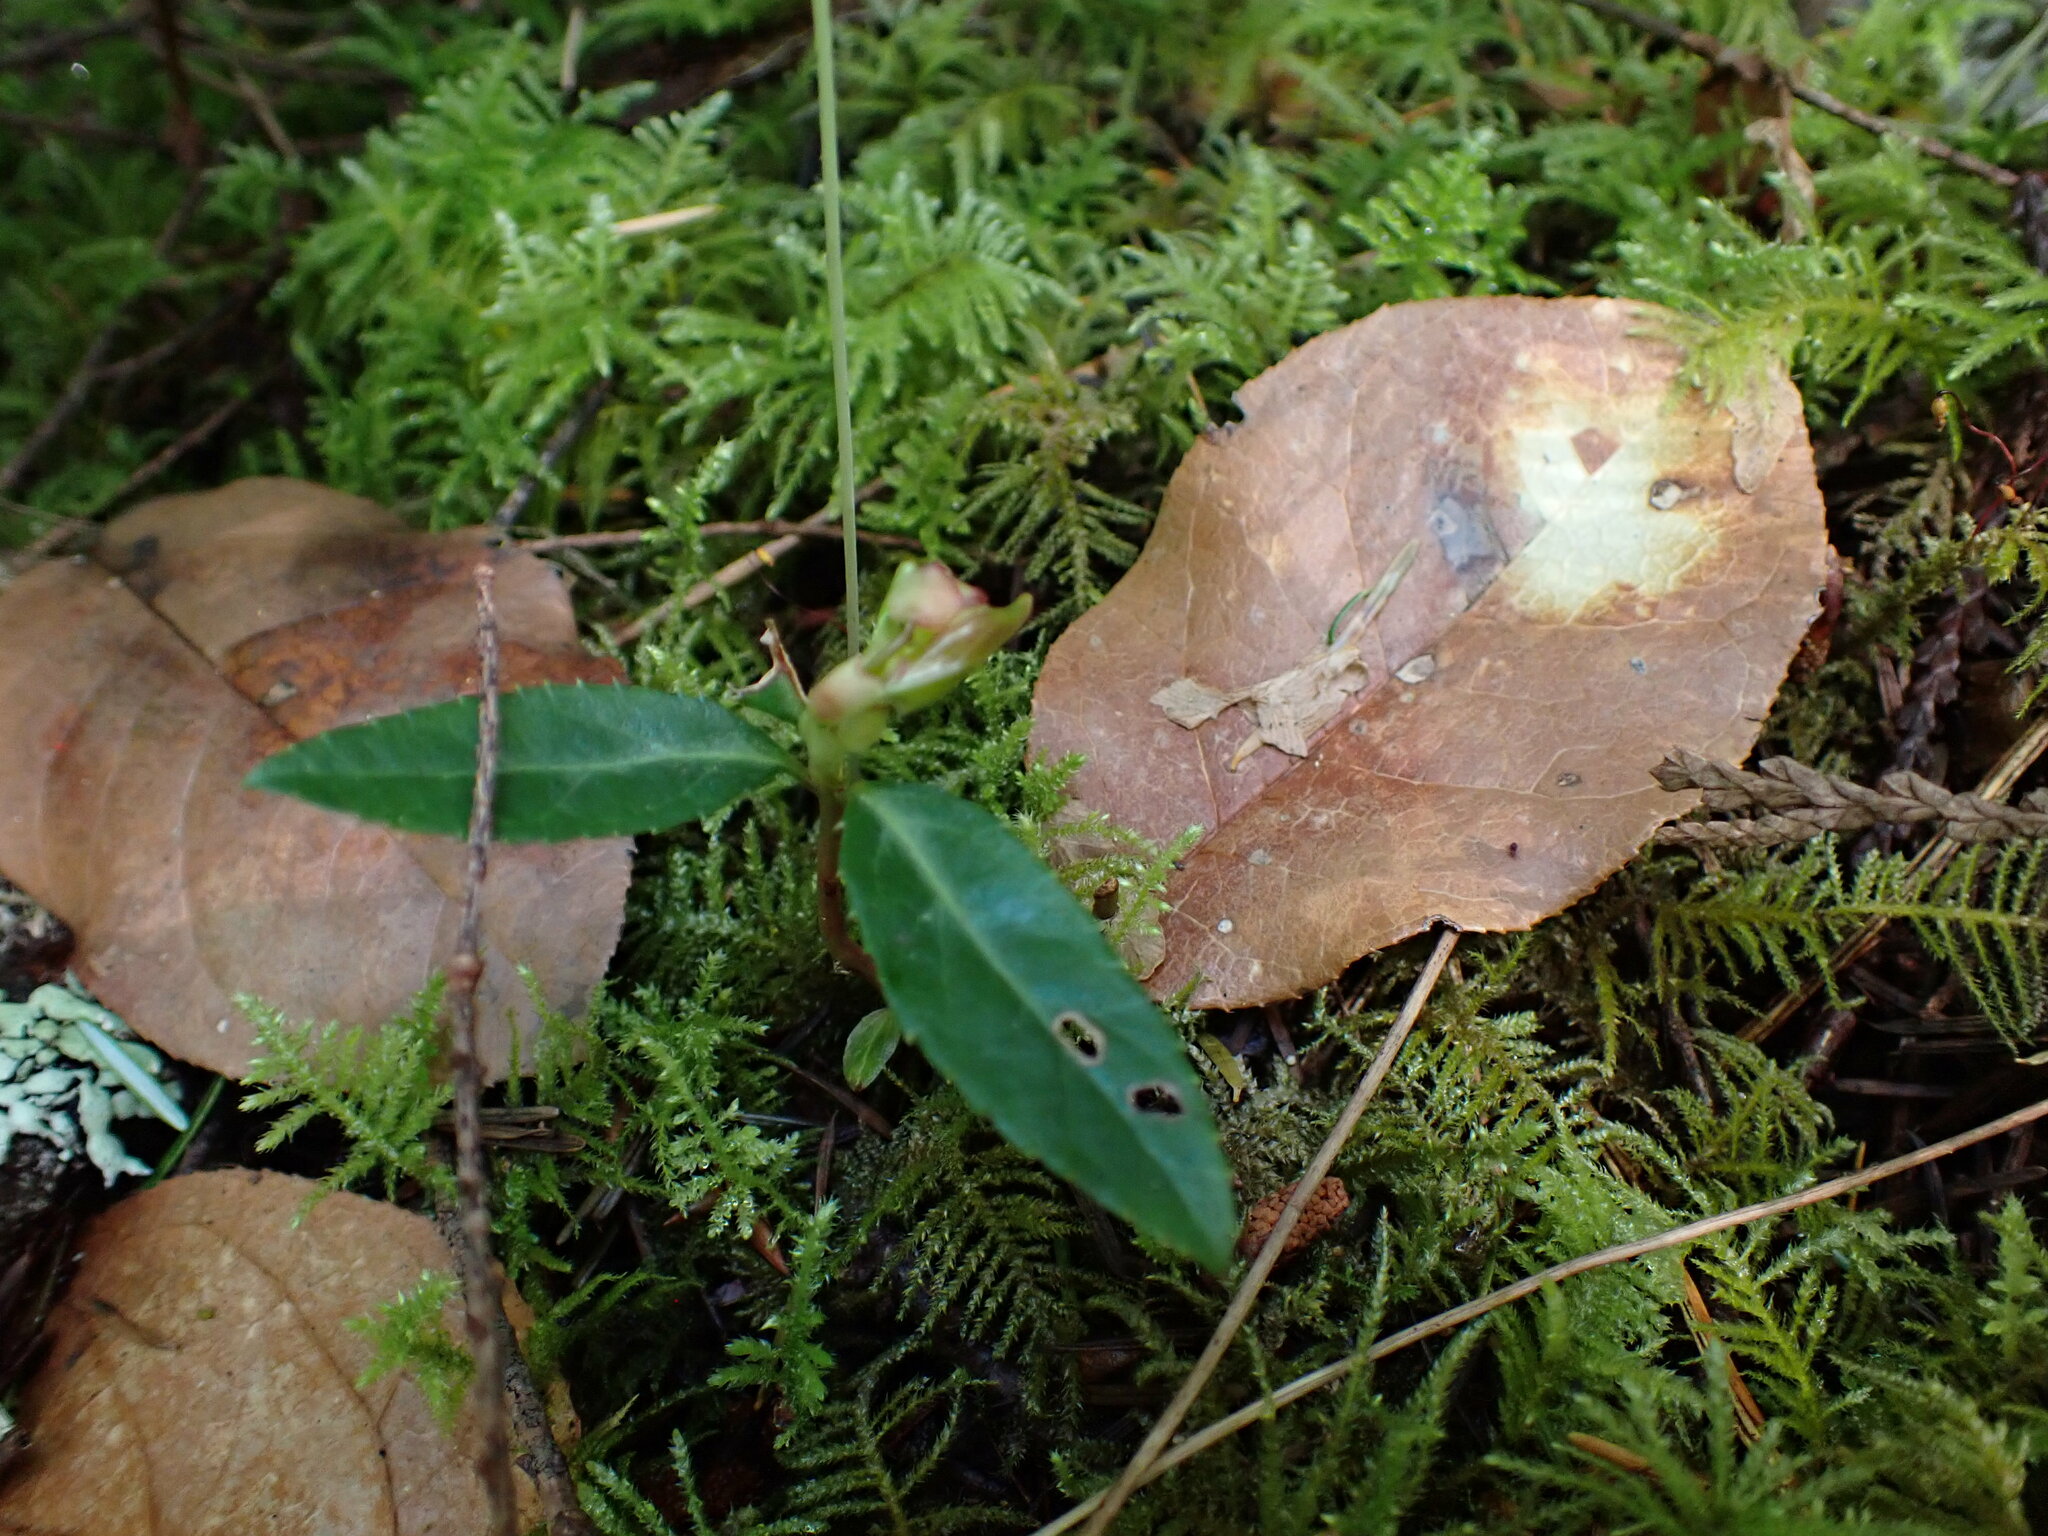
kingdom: Plantae
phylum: Tracheophyta
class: Magnoliopsida
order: Ericales
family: Ericaceae
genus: Chimaphila
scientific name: Chimaphila menziesii
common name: Menzies' pipsissewa
